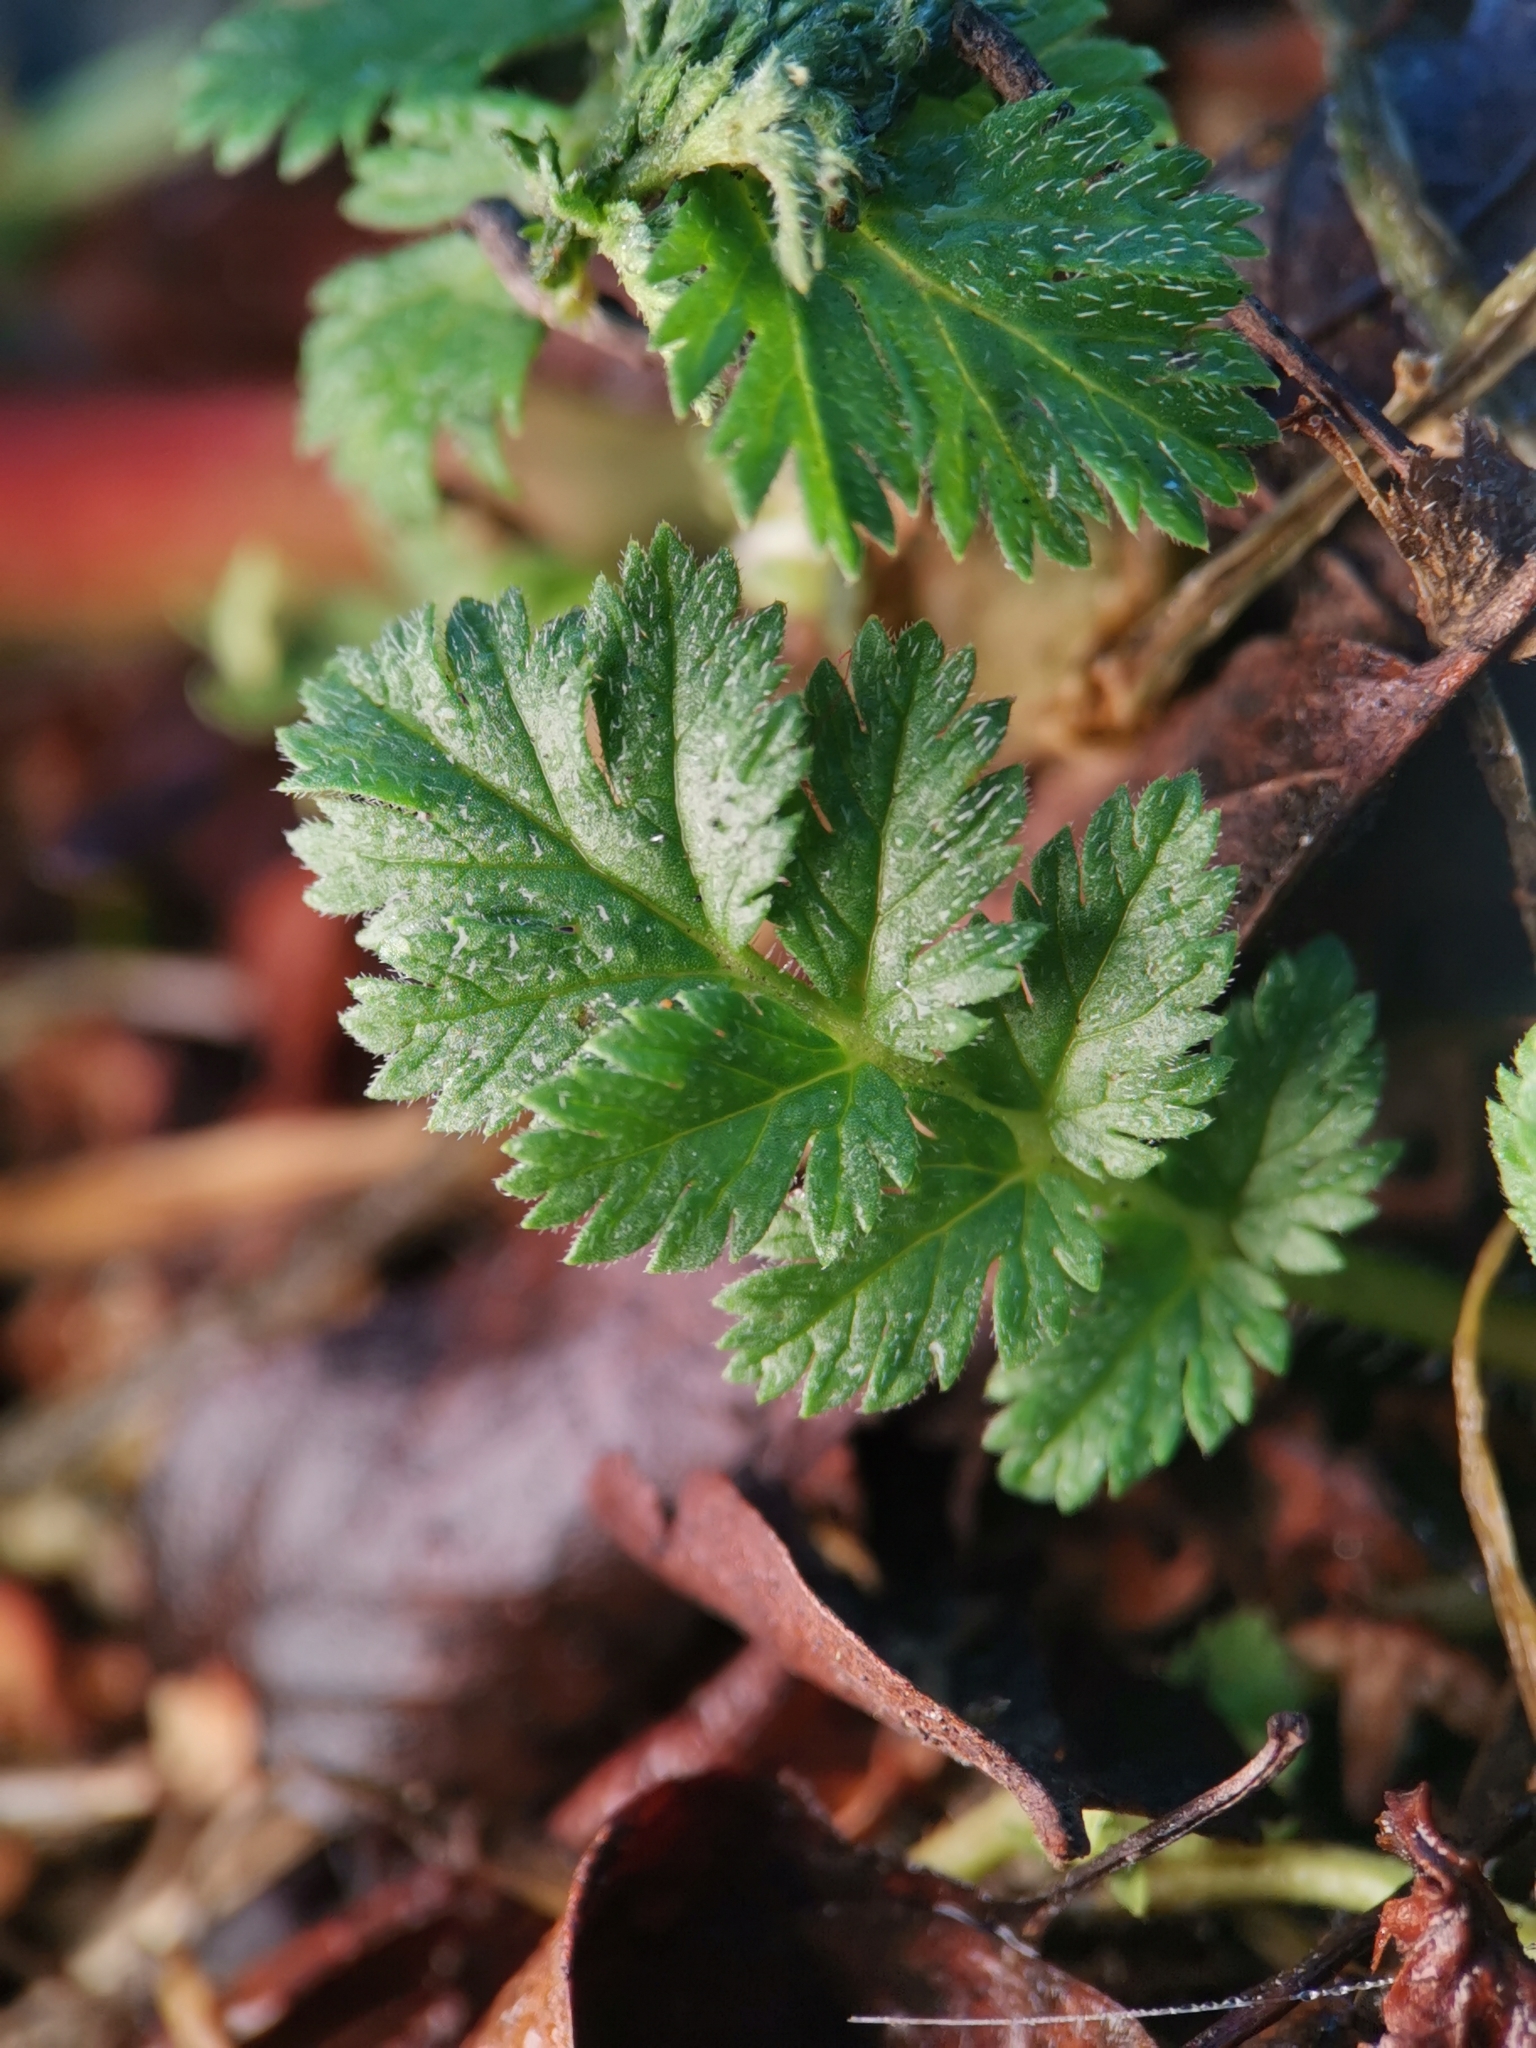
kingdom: Plantae
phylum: Tracheophyta
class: Magnoliopsida
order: Geraniales
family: Geraniaceae
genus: Erodium
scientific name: Erodium cicutarium
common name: Common stork's-bill
